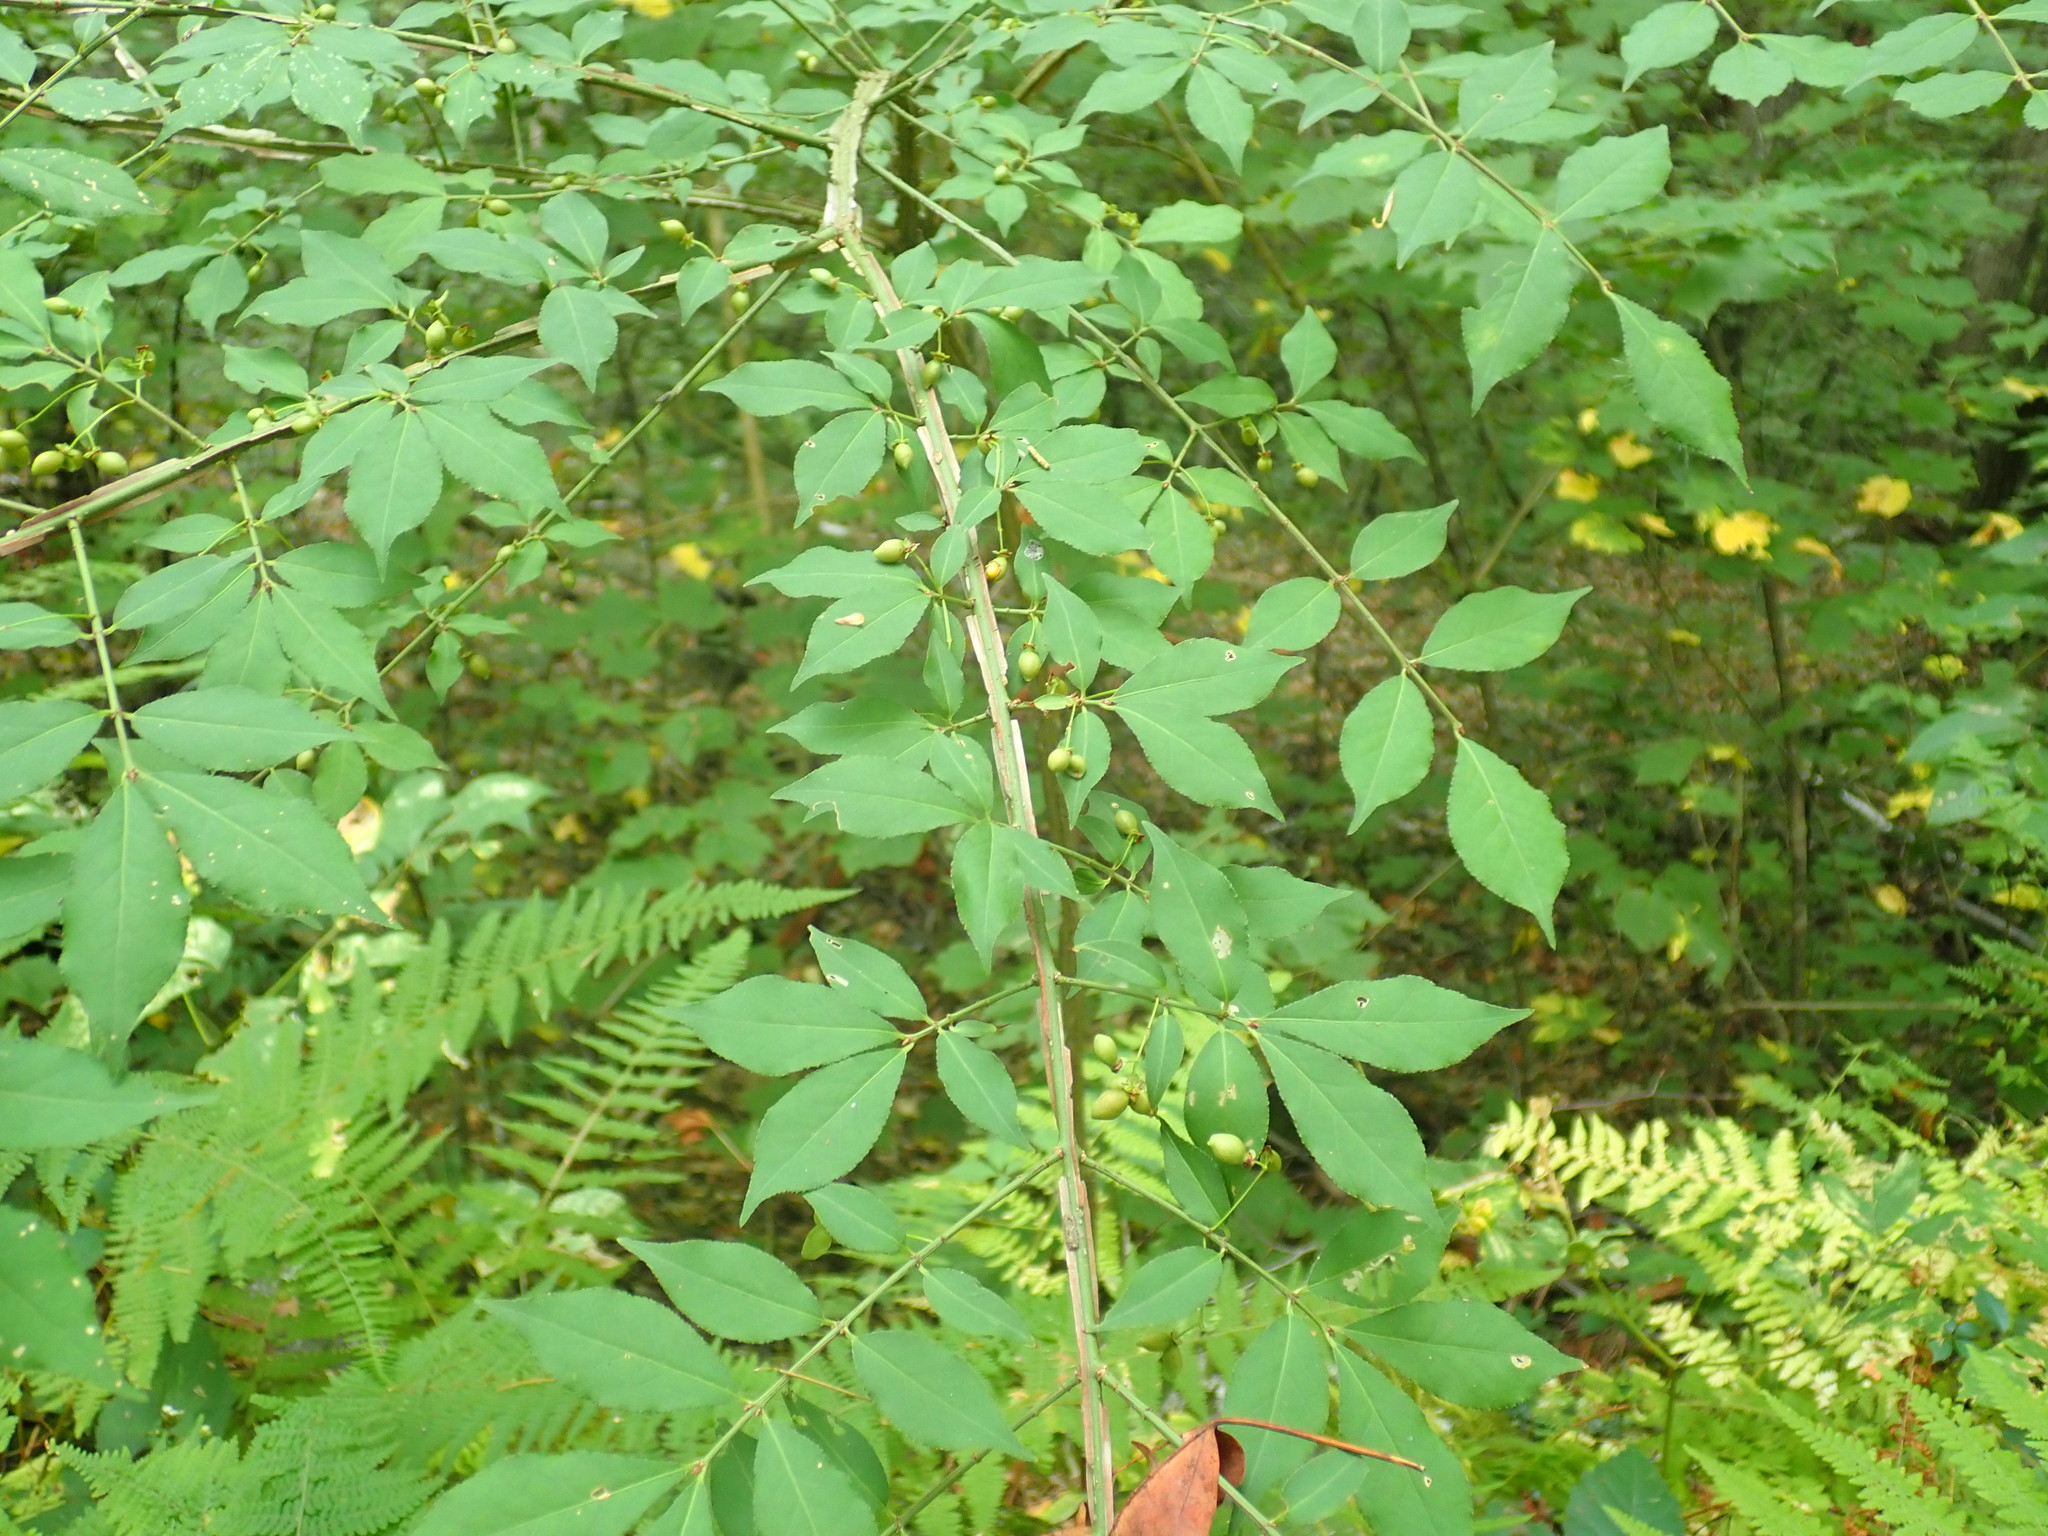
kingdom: Plantae
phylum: Tracheophyta
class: Magnoliopsida
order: Celastrales
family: Celastraceae
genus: Euonymus
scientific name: Euonymus alatus
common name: Winged euonymus
